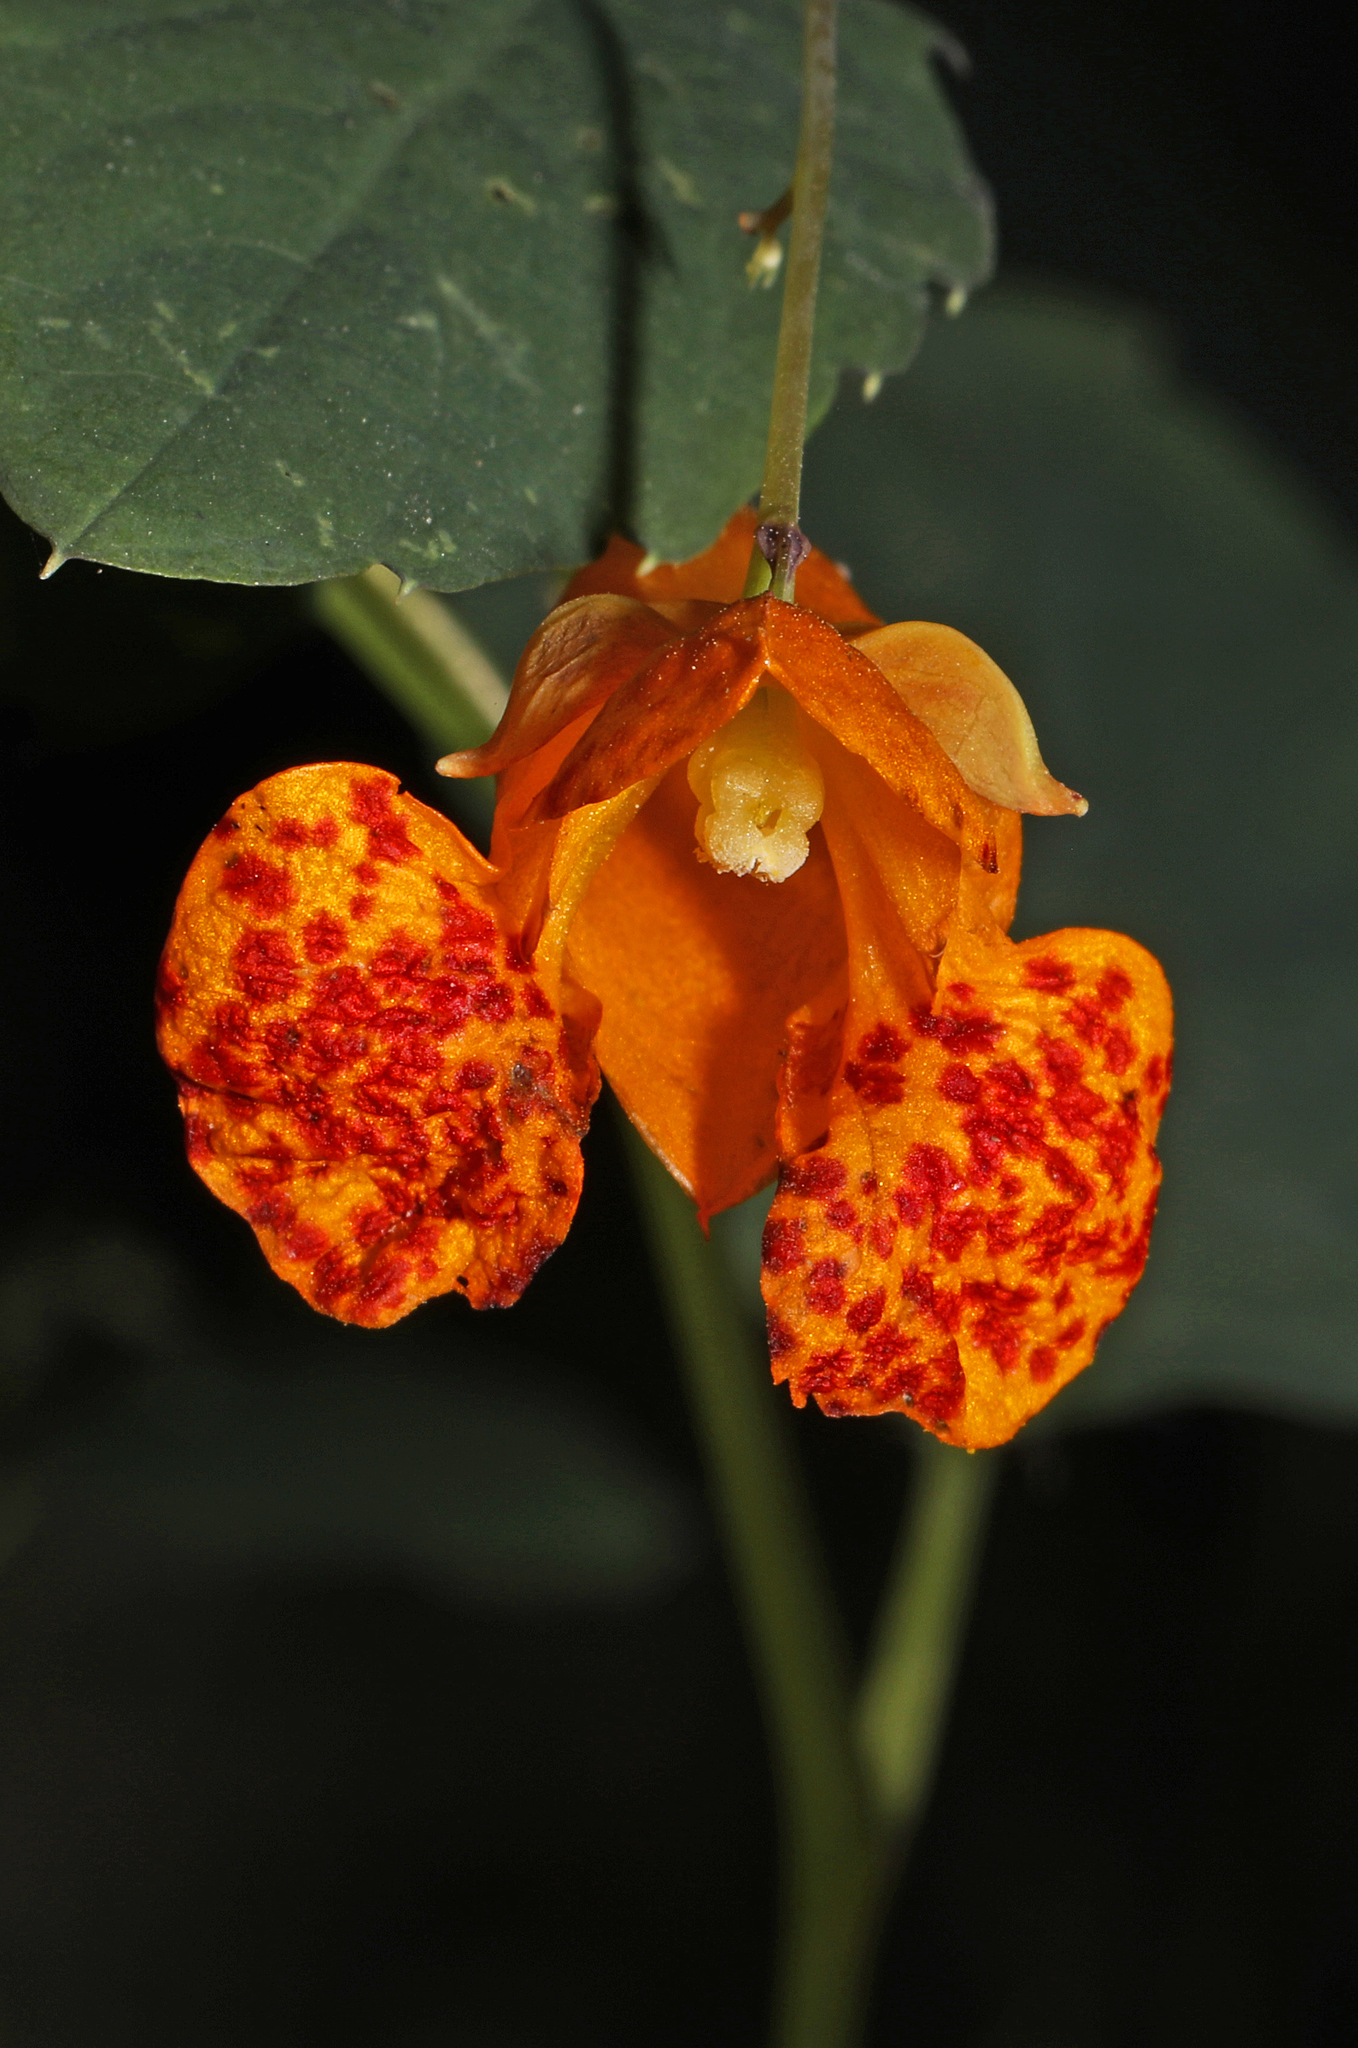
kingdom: Plantae
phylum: Tracheophyta
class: Magnoliopsida
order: Ericales
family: Balsaminaceae
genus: Impatiens
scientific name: Impatiens capensis
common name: Orange balsam
